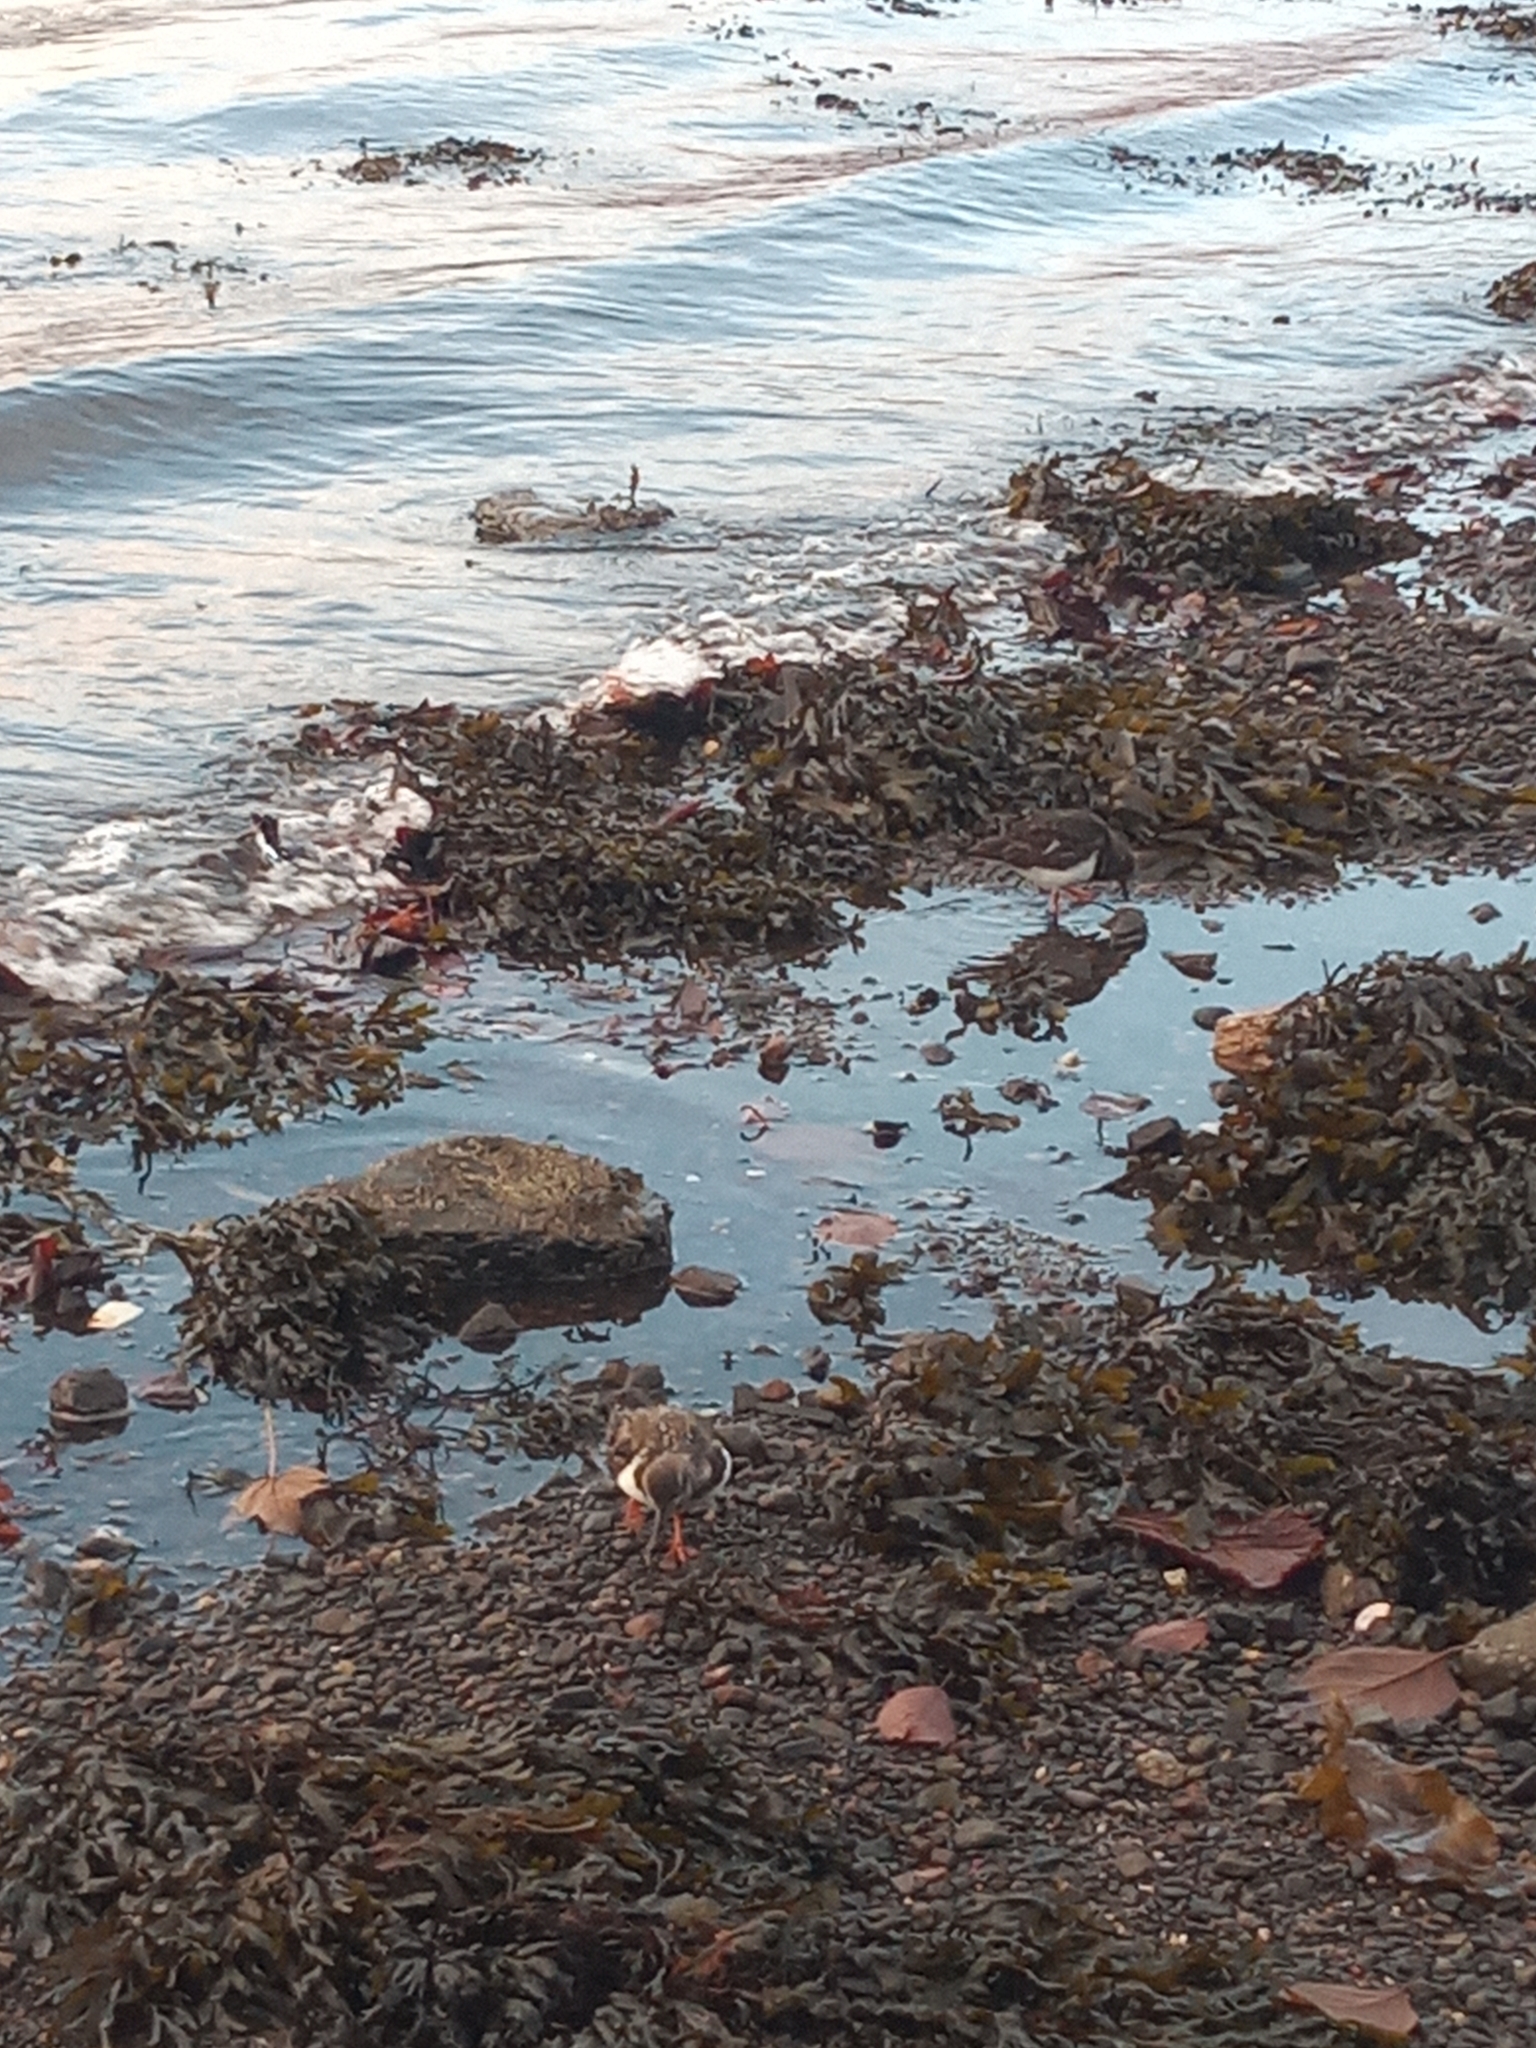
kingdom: Animalia
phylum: Chordata
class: Aves
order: Charadriiformes
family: Scolopacidae
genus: Arenaria
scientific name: Arenaria interpres
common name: Ruddy turnstone
